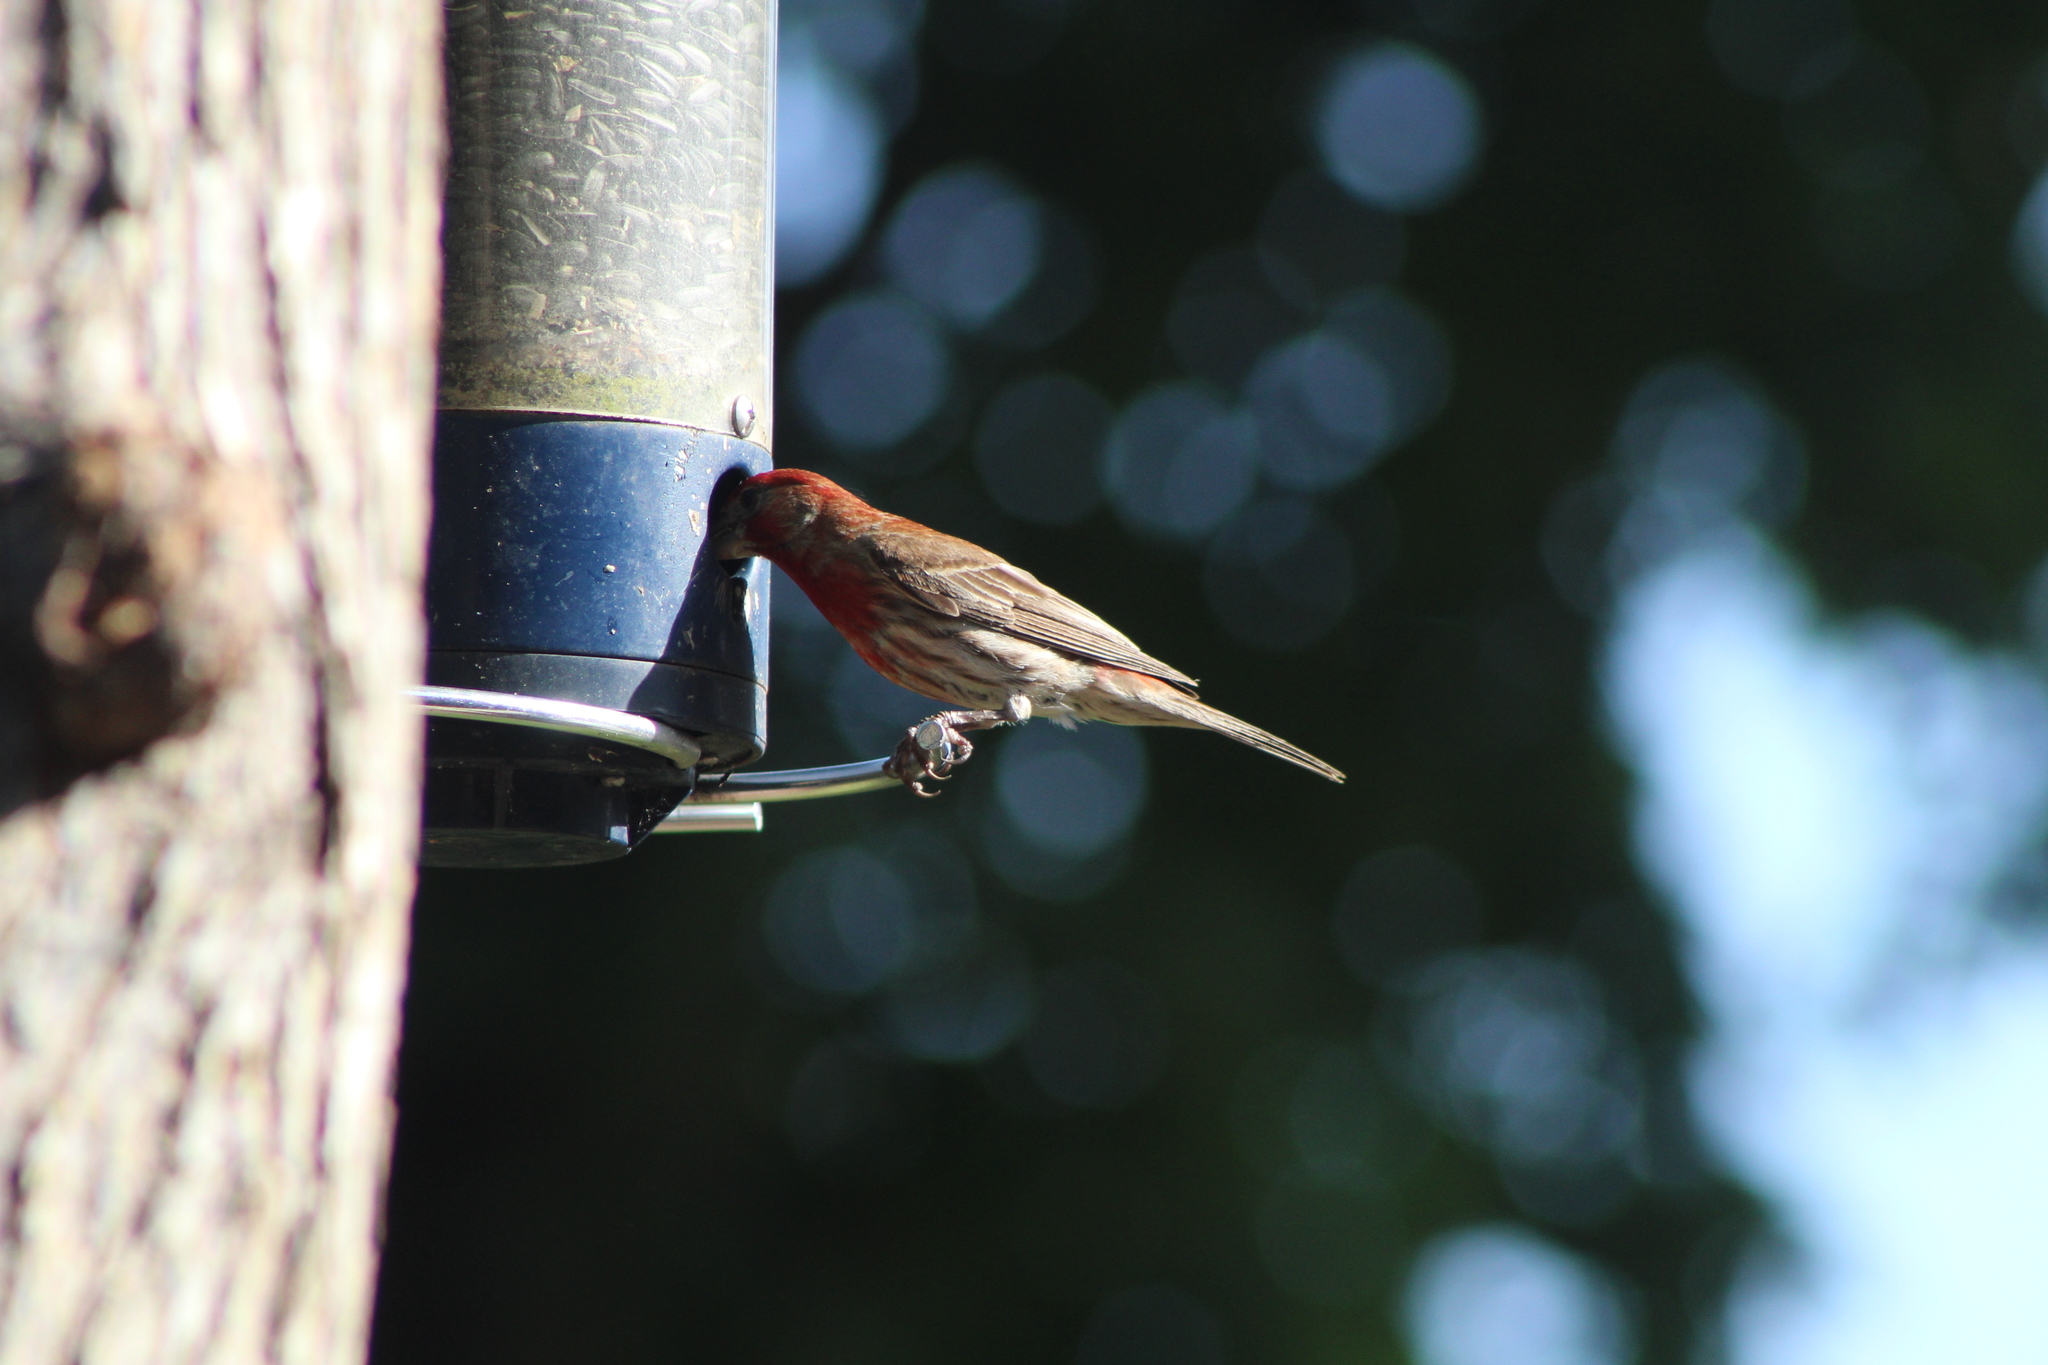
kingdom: Animalia
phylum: Chordata
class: Aves
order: Passeriformes
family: Fringillidae
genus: Haemorhous
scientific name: Haemorhous mexicanus
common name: House finch
